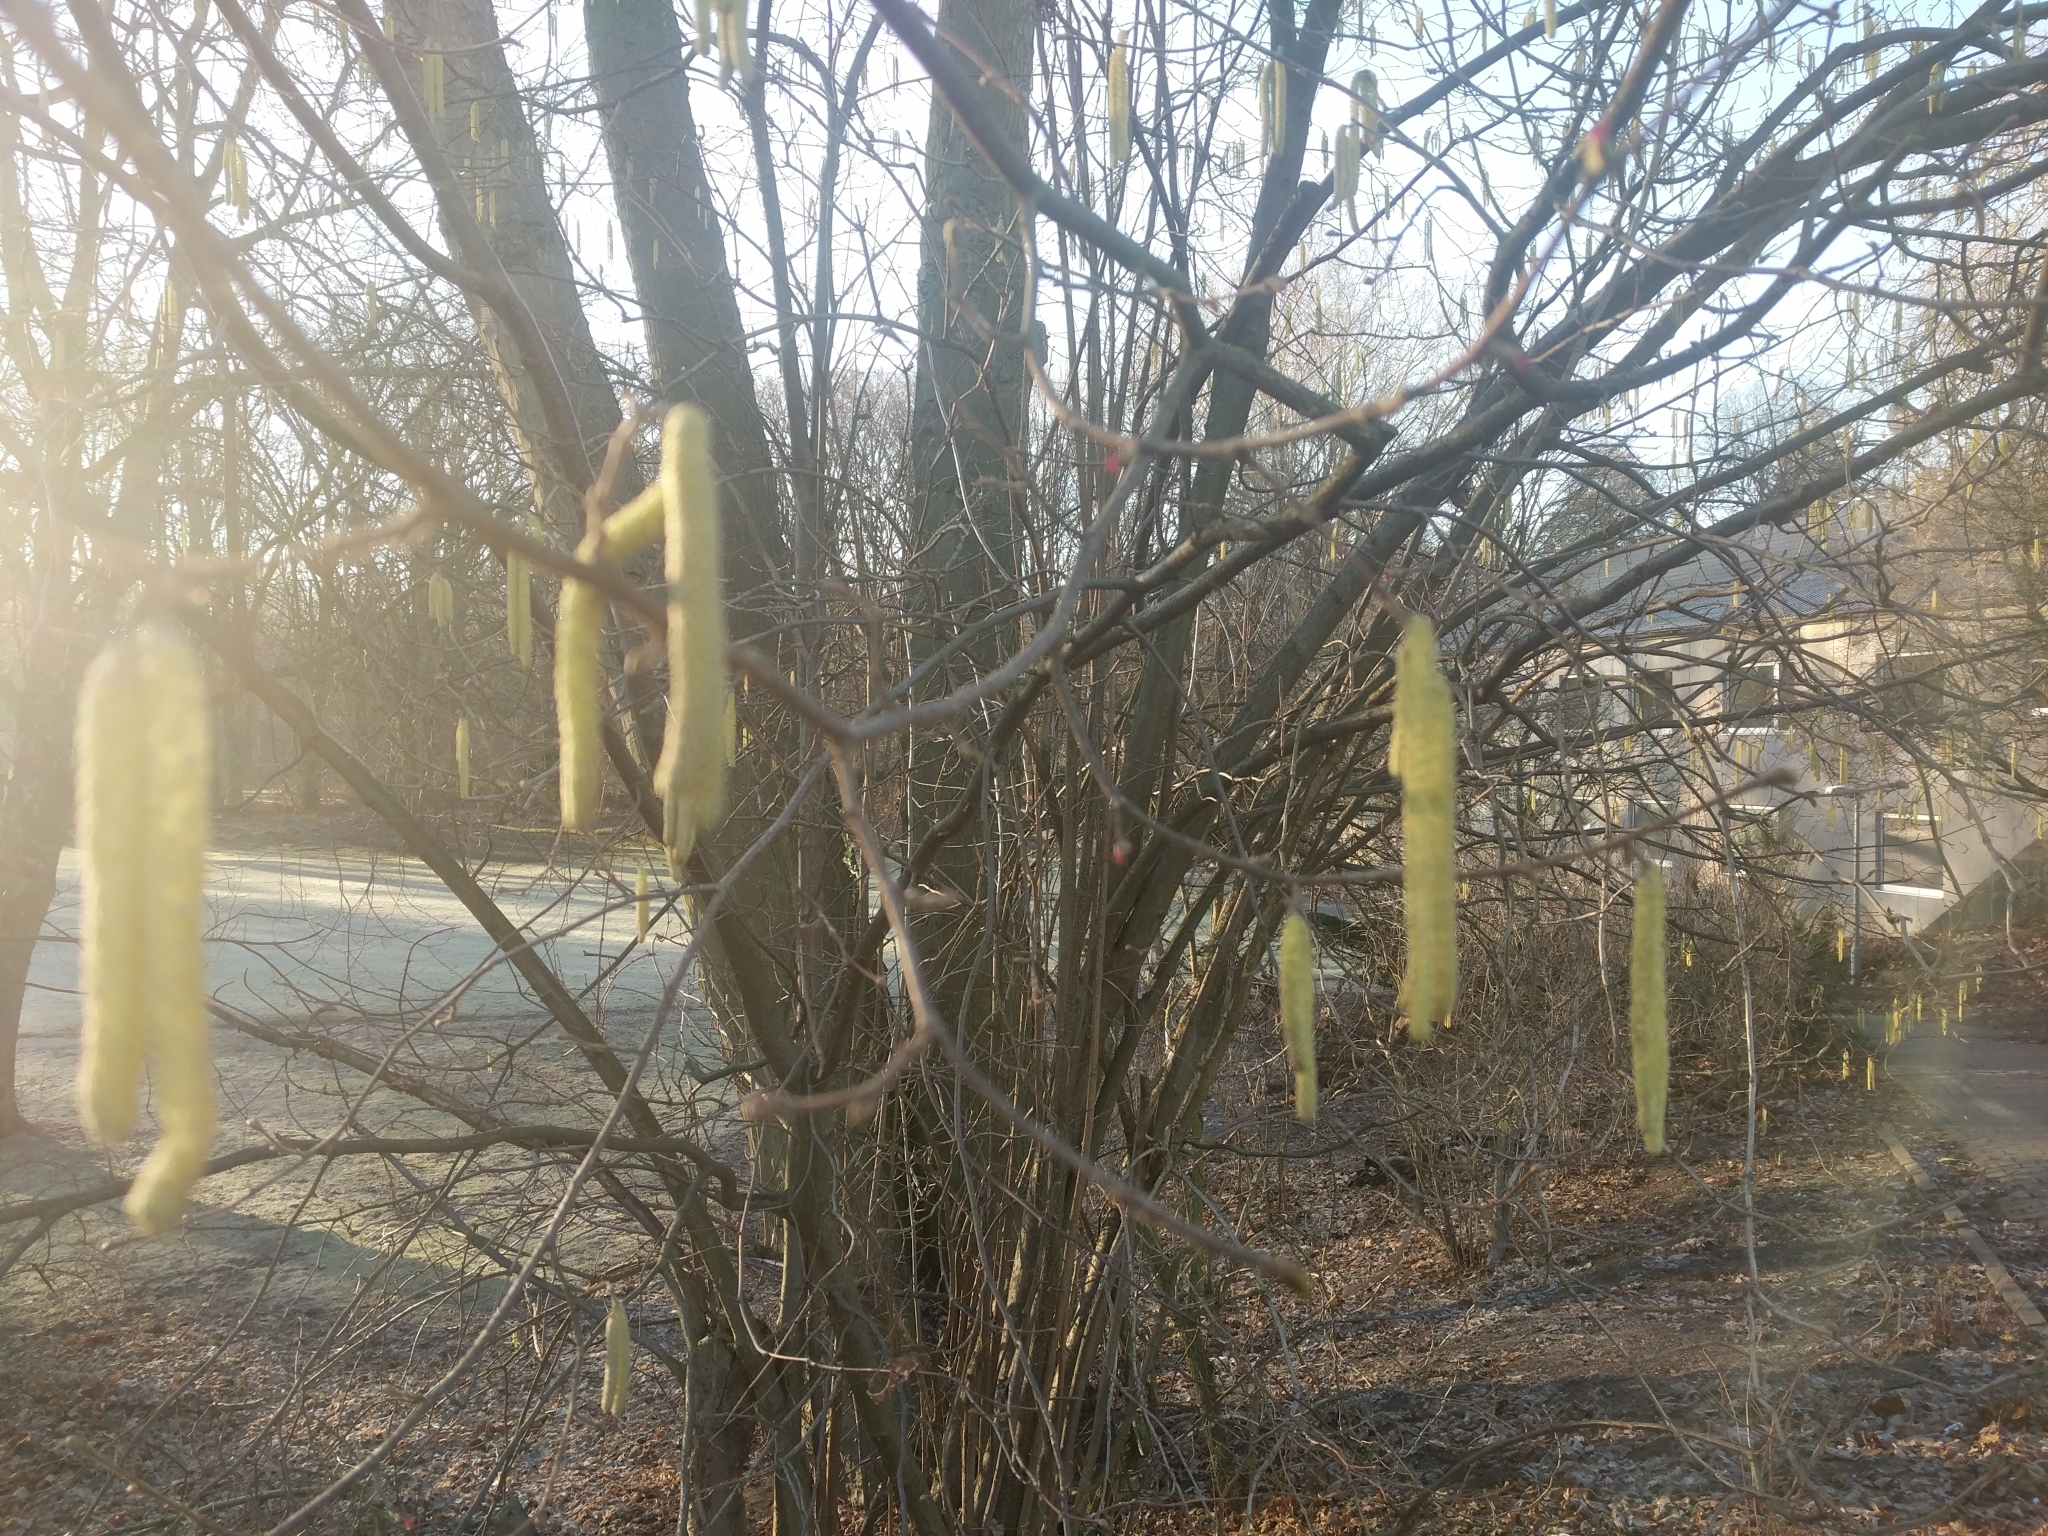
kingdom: Plantae
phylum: Tracheophyta
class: Magnoliopsida
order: Fagales
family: Betulaceae
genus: Corylus
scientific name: Corylus avellana
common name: European hazel
